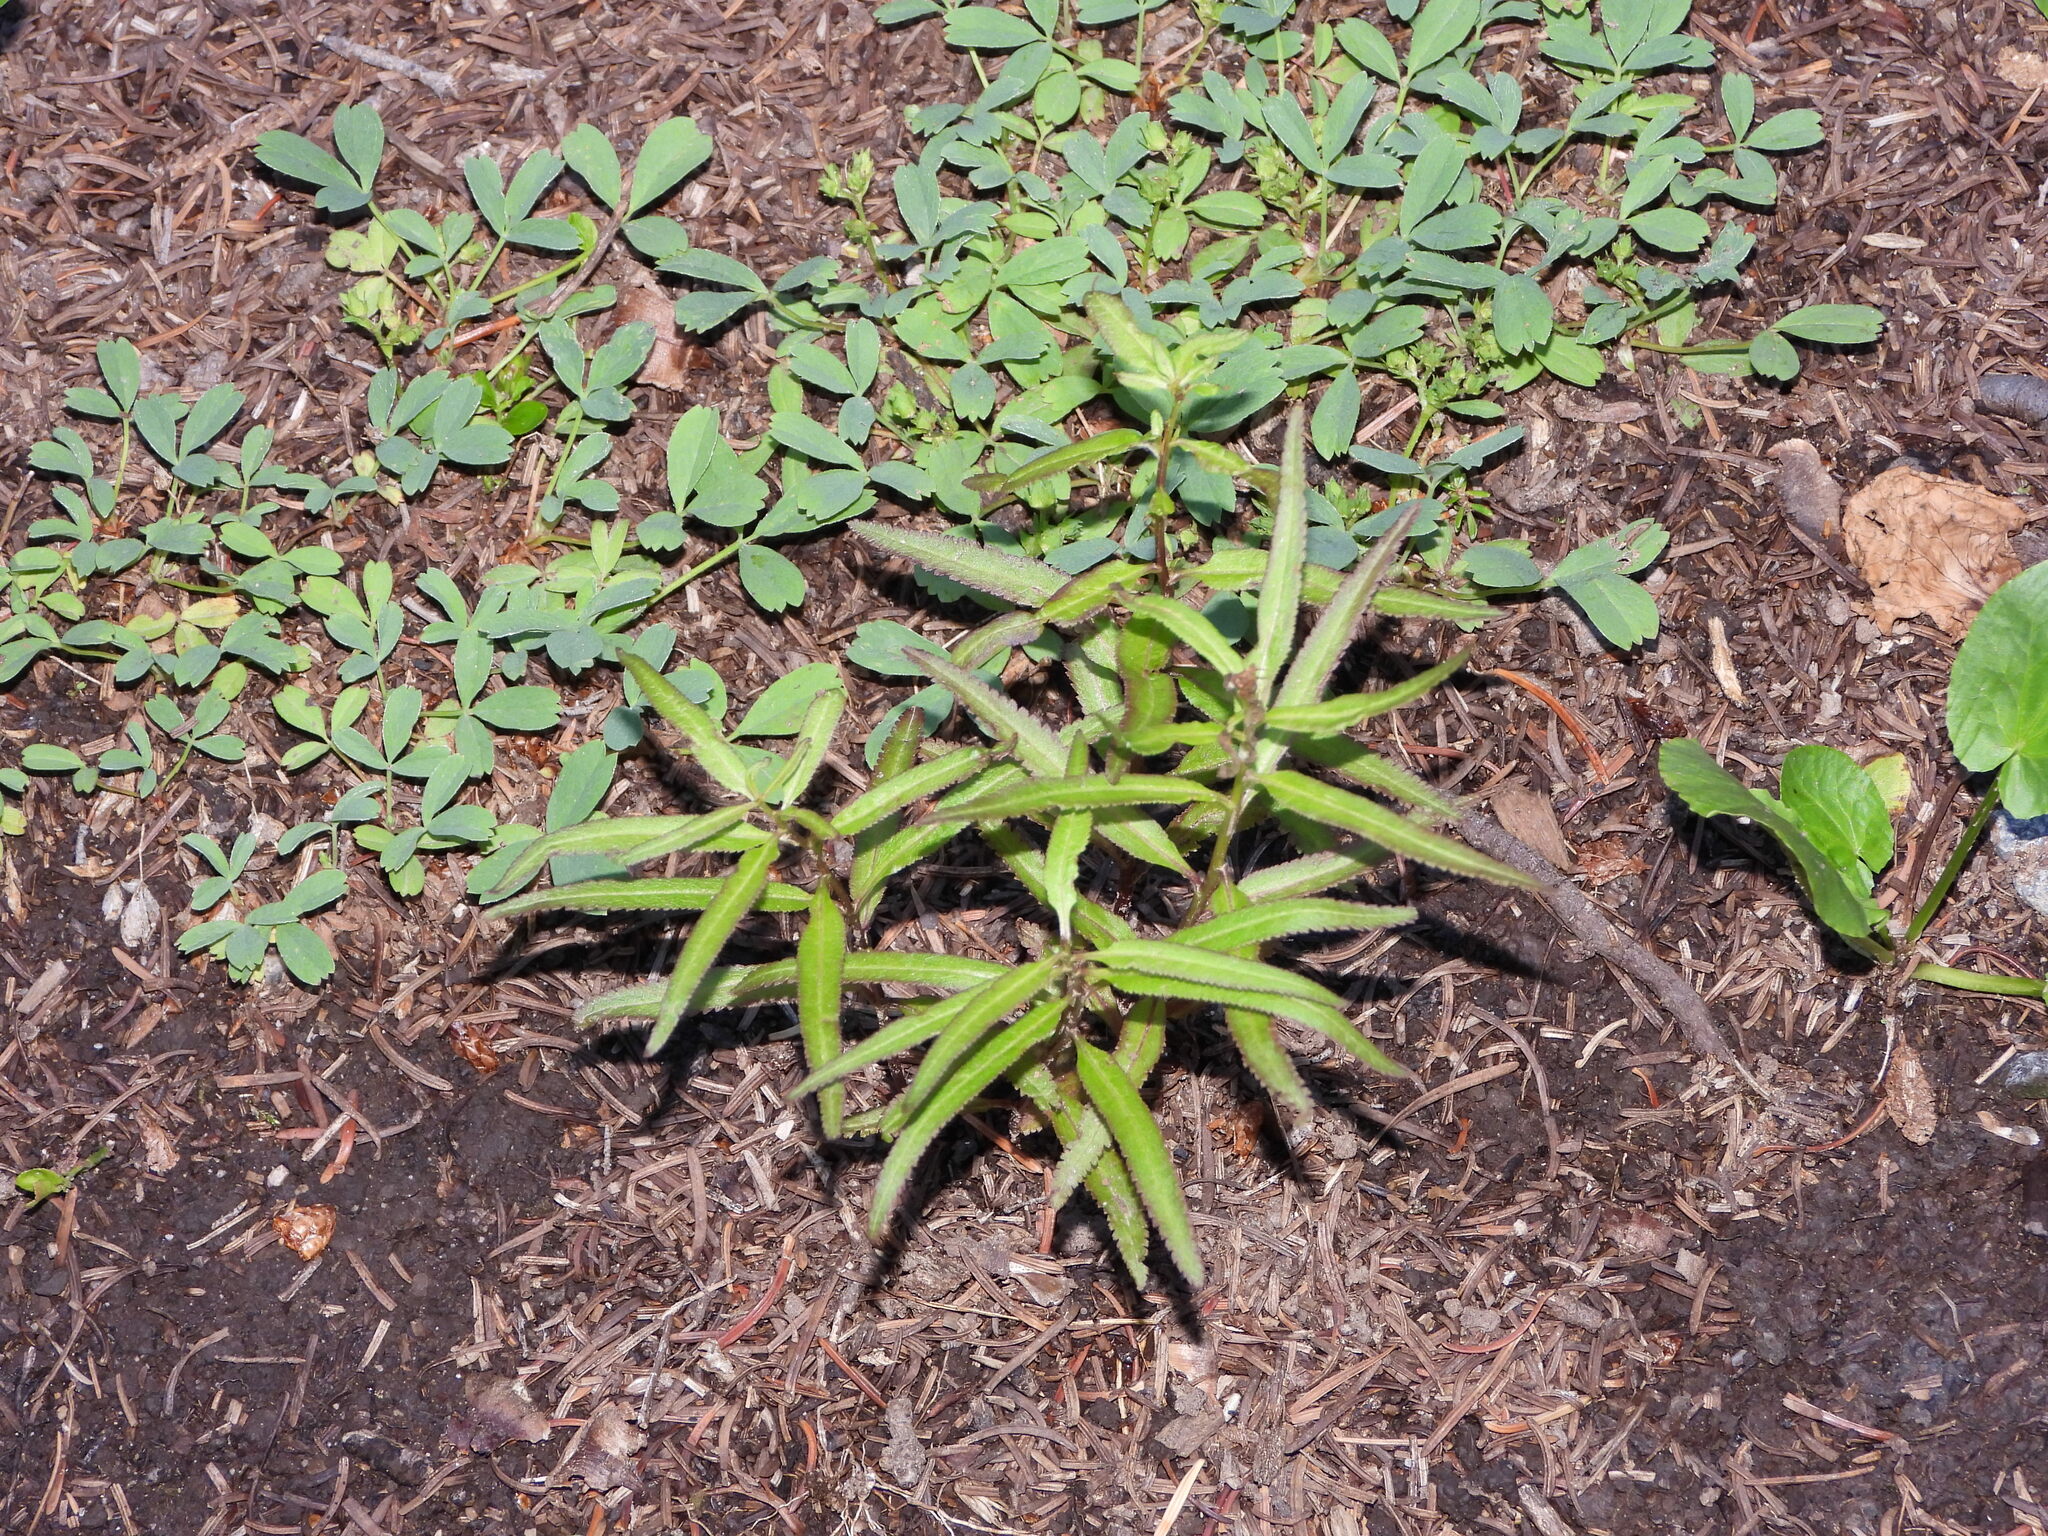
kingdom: Plantae
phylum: Tracheophyta
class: Magnoliopsida
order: Lamiales
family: Orobanchaceae
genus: Pedicularis
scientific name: Pedicularis racemosa
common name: Leafy lousewort
